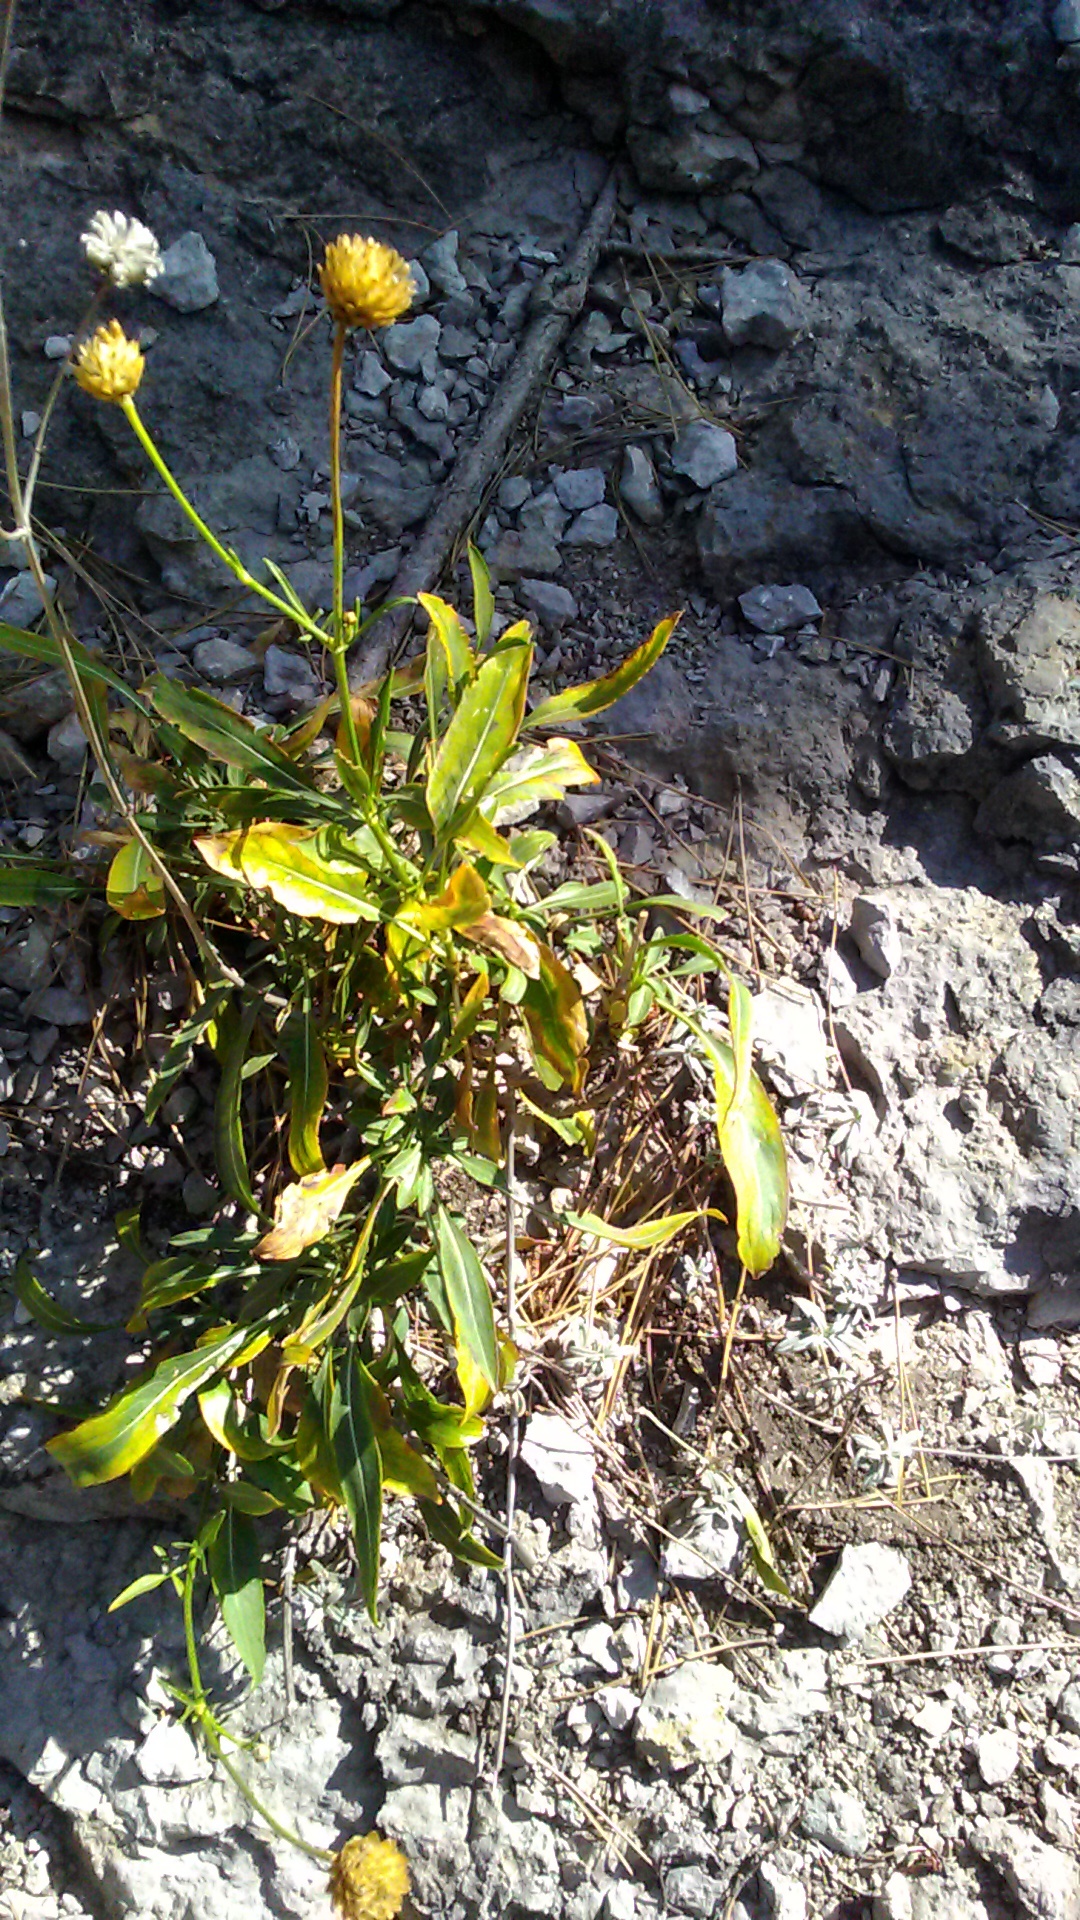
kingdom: Plantae
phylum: Tracheophyta
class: Magnoliopsida
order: Dipsacales
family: Caprifoliaceae
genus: Cephalaria
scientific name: Cephalaria coriacea
